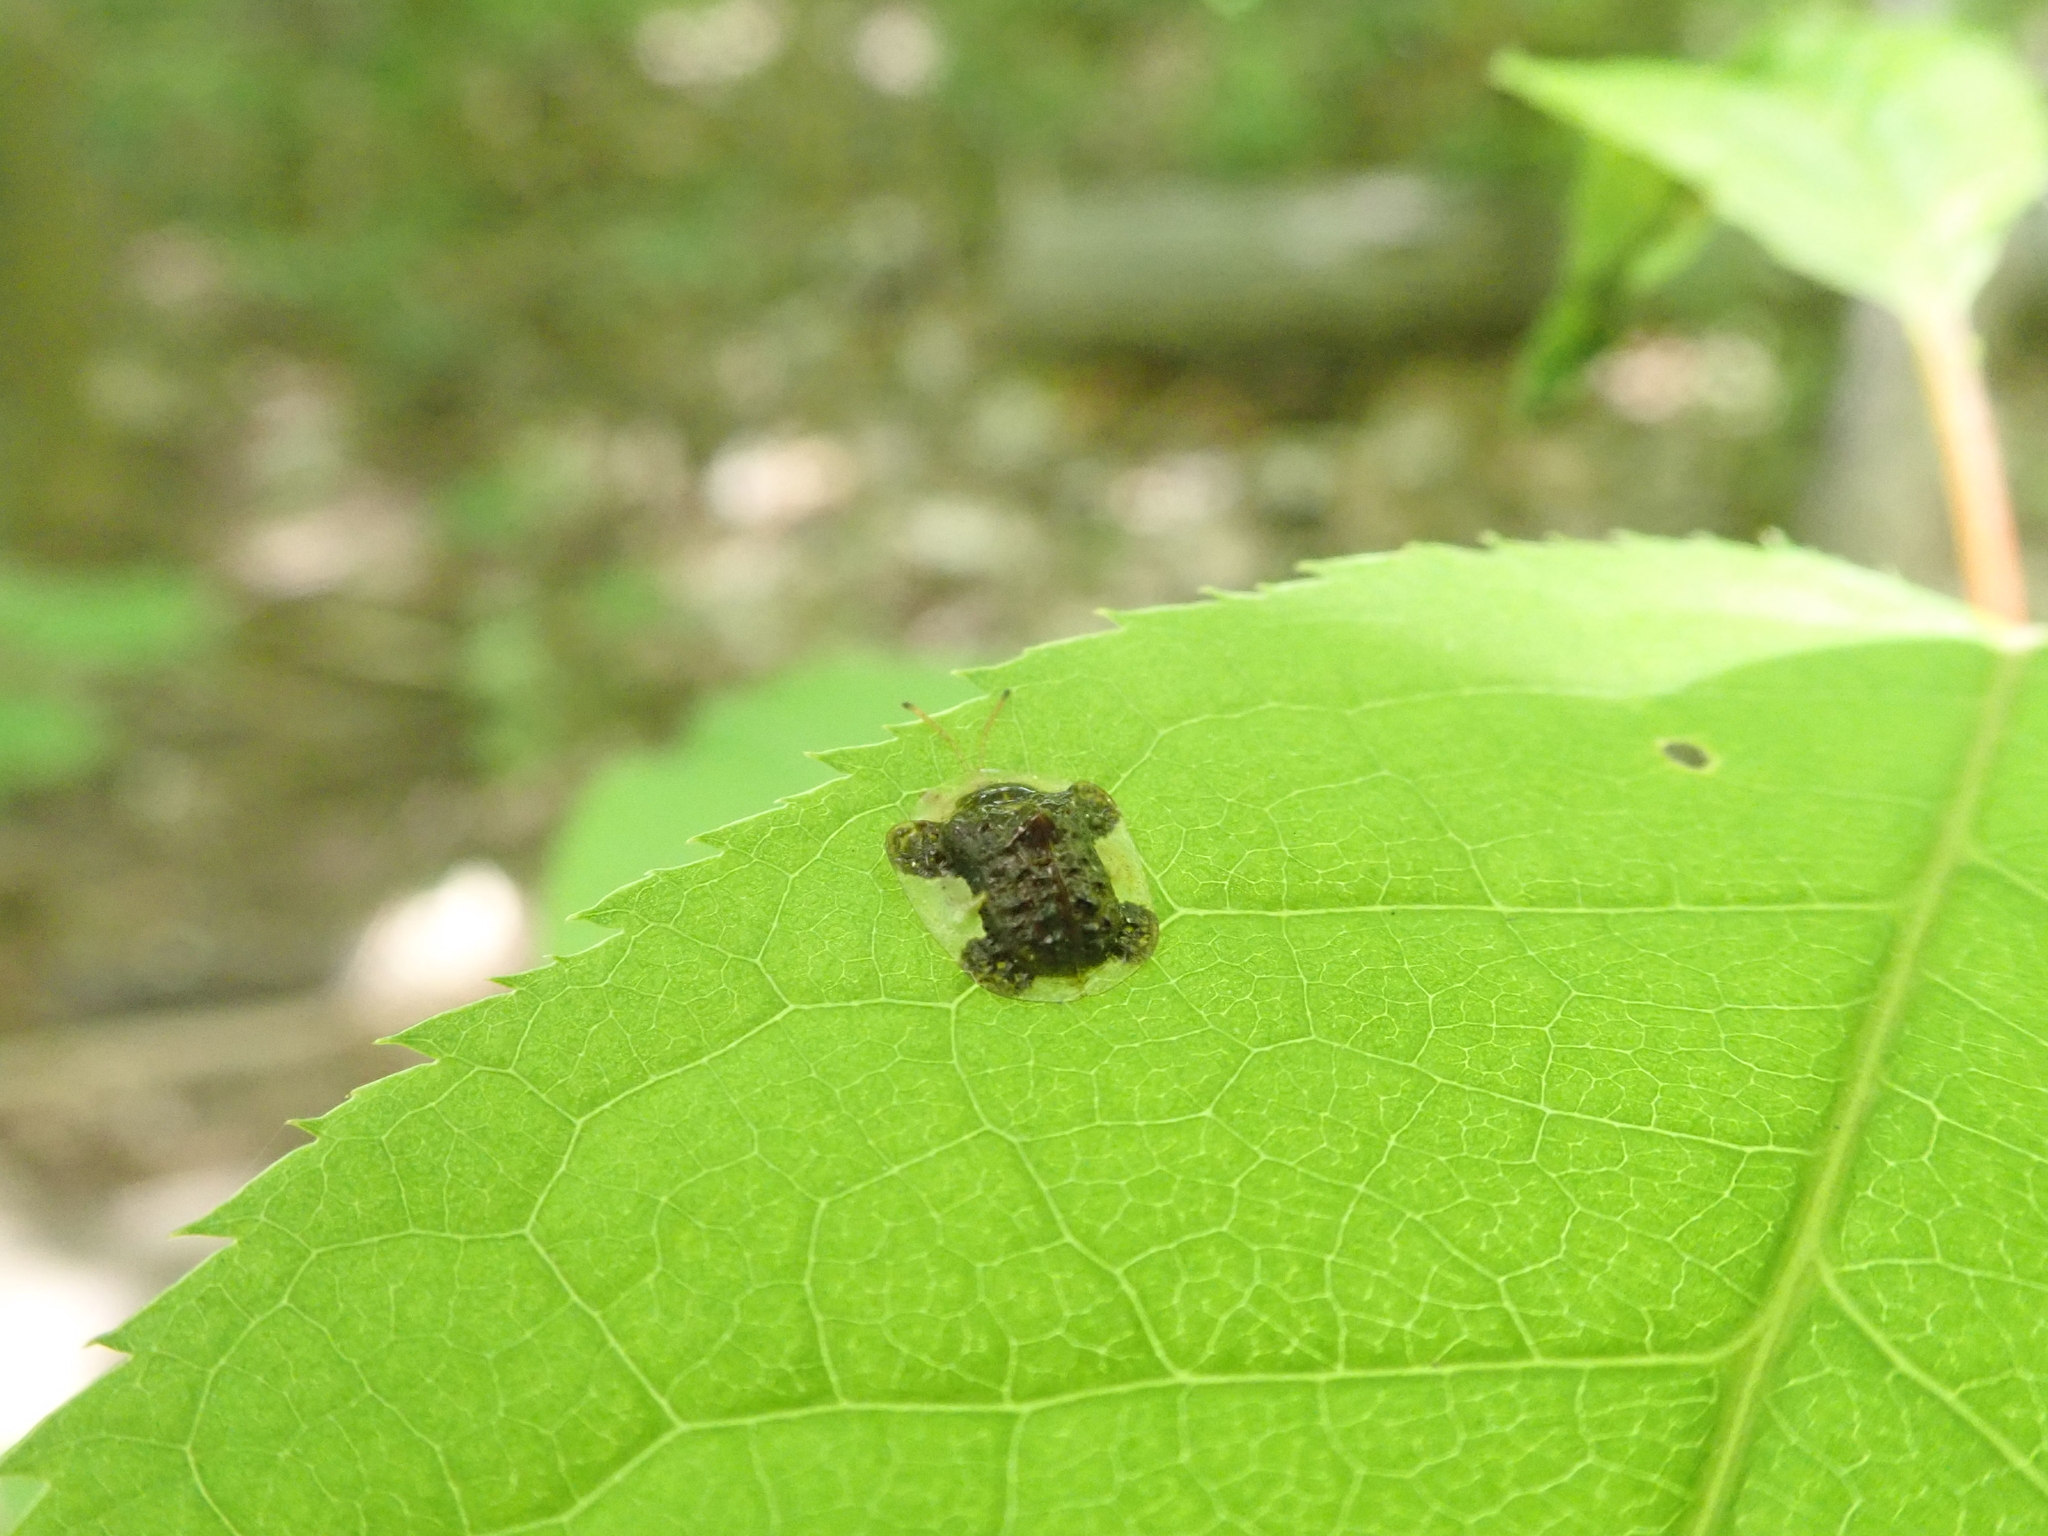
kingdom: Animalia
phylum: Arthropoda
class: Insecta
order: Coleoptera
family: Chrysomelidae
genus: Helocassis
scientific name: Helocassis clavata
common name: Clavate tortoise beetle
